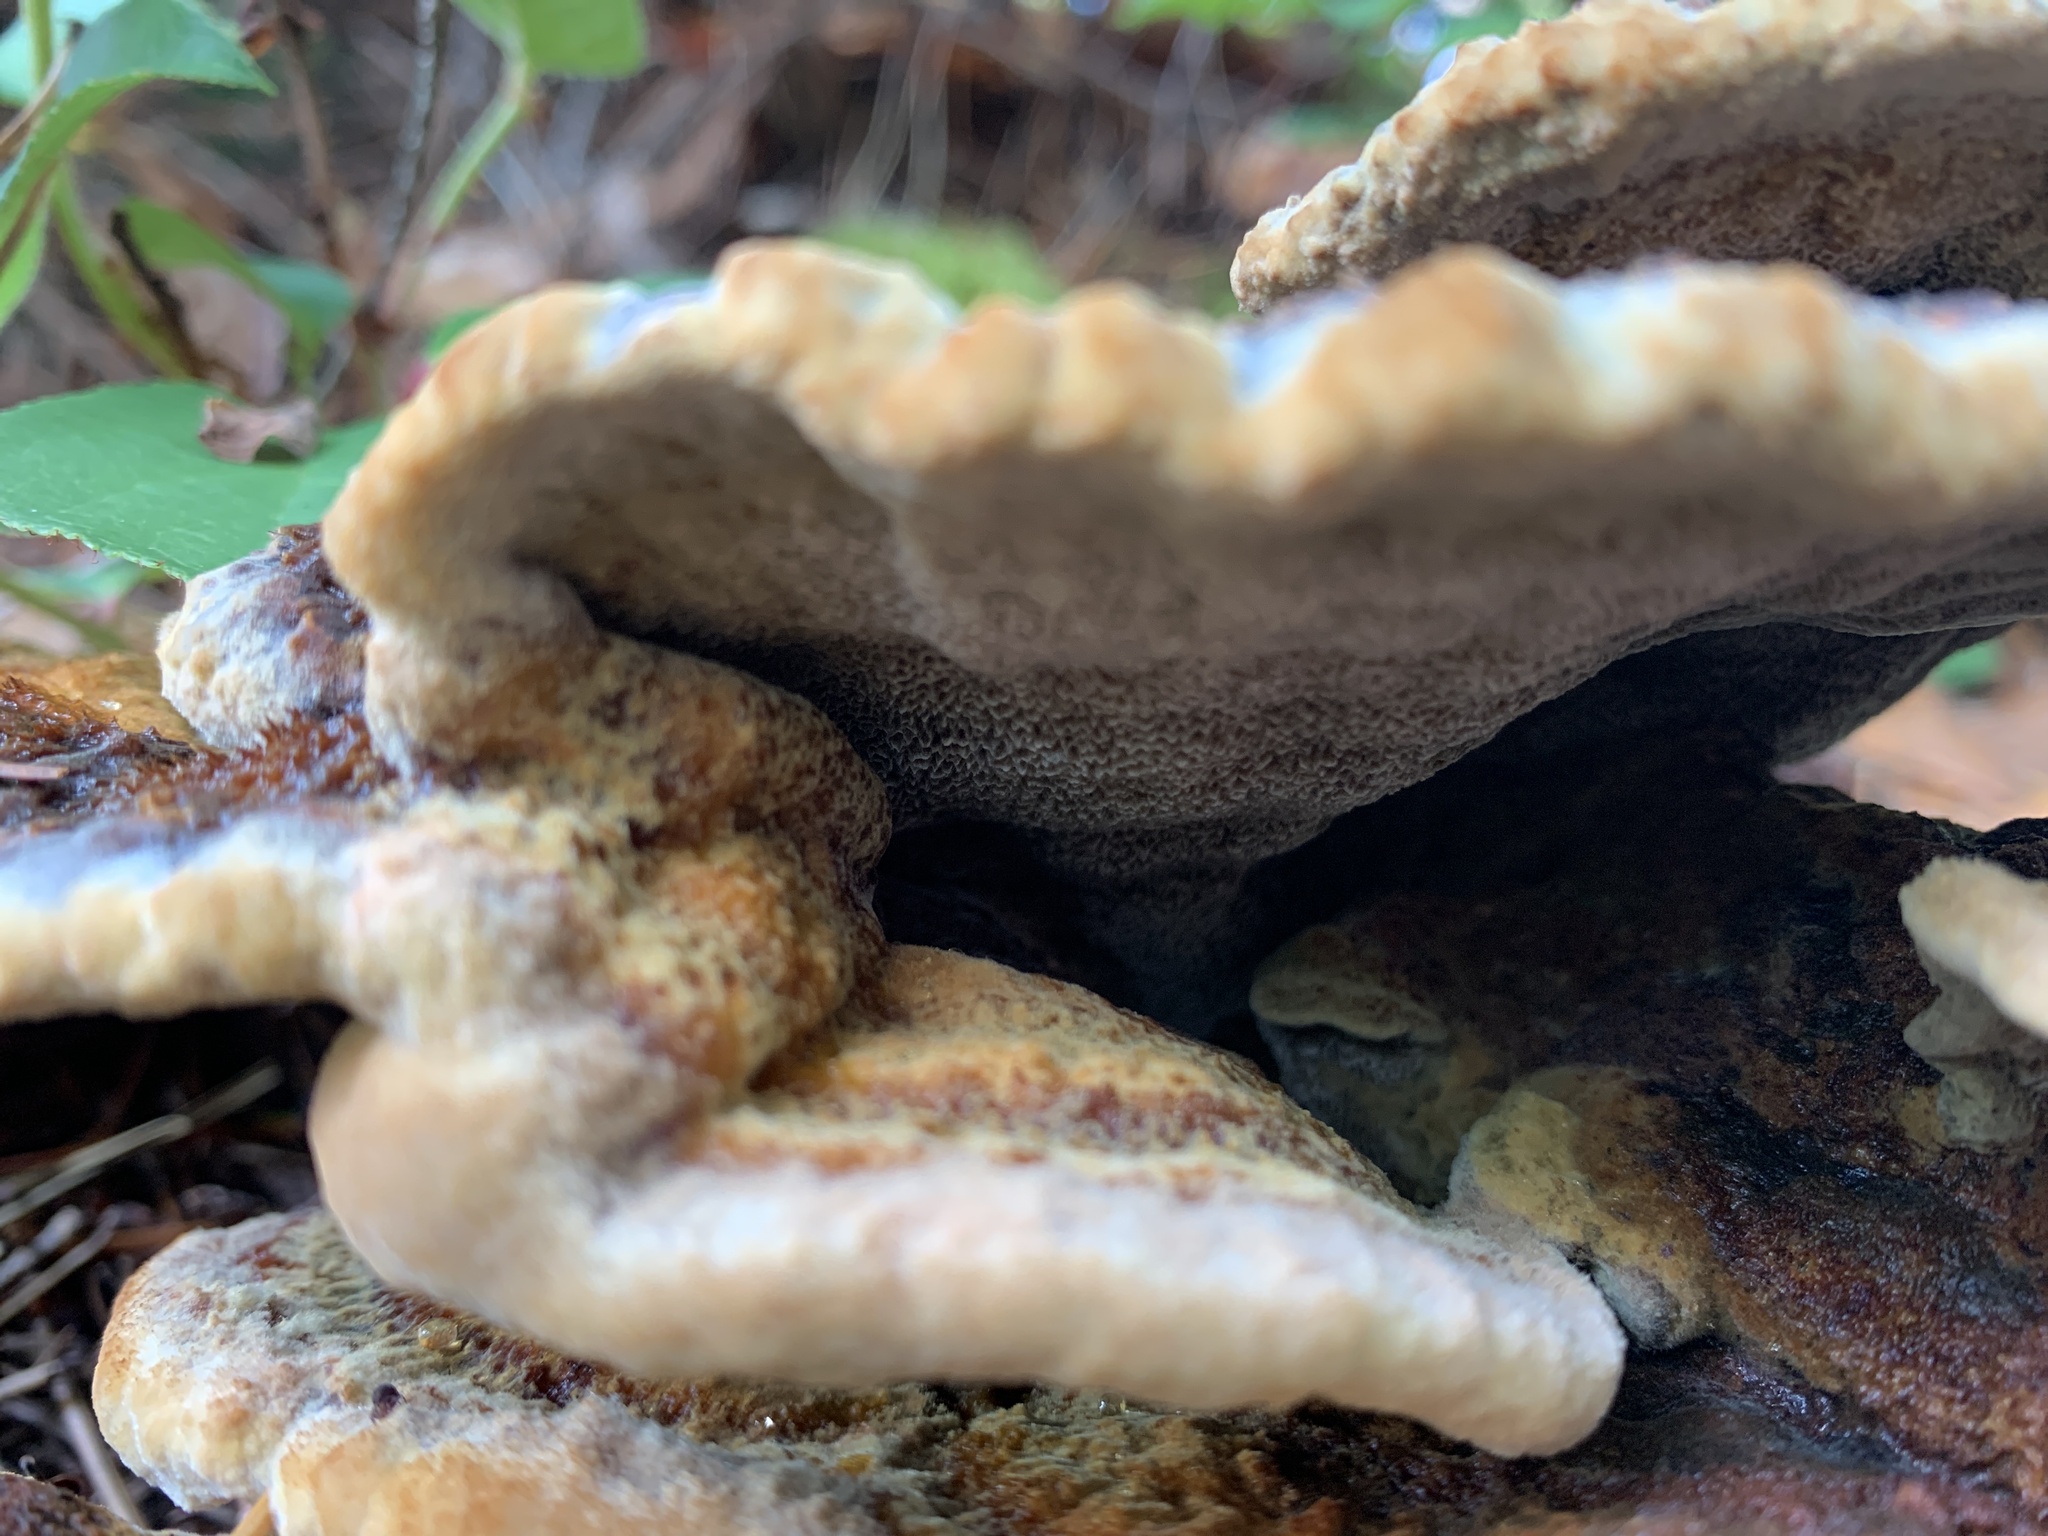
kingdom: Fungi
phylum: Basidiomycota
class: Agaricomycetes
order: Polyporales
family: Laetiporaceae
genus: Phaeolus
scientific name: Phaeolus schweinitzii
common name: Dyer's mazegill
